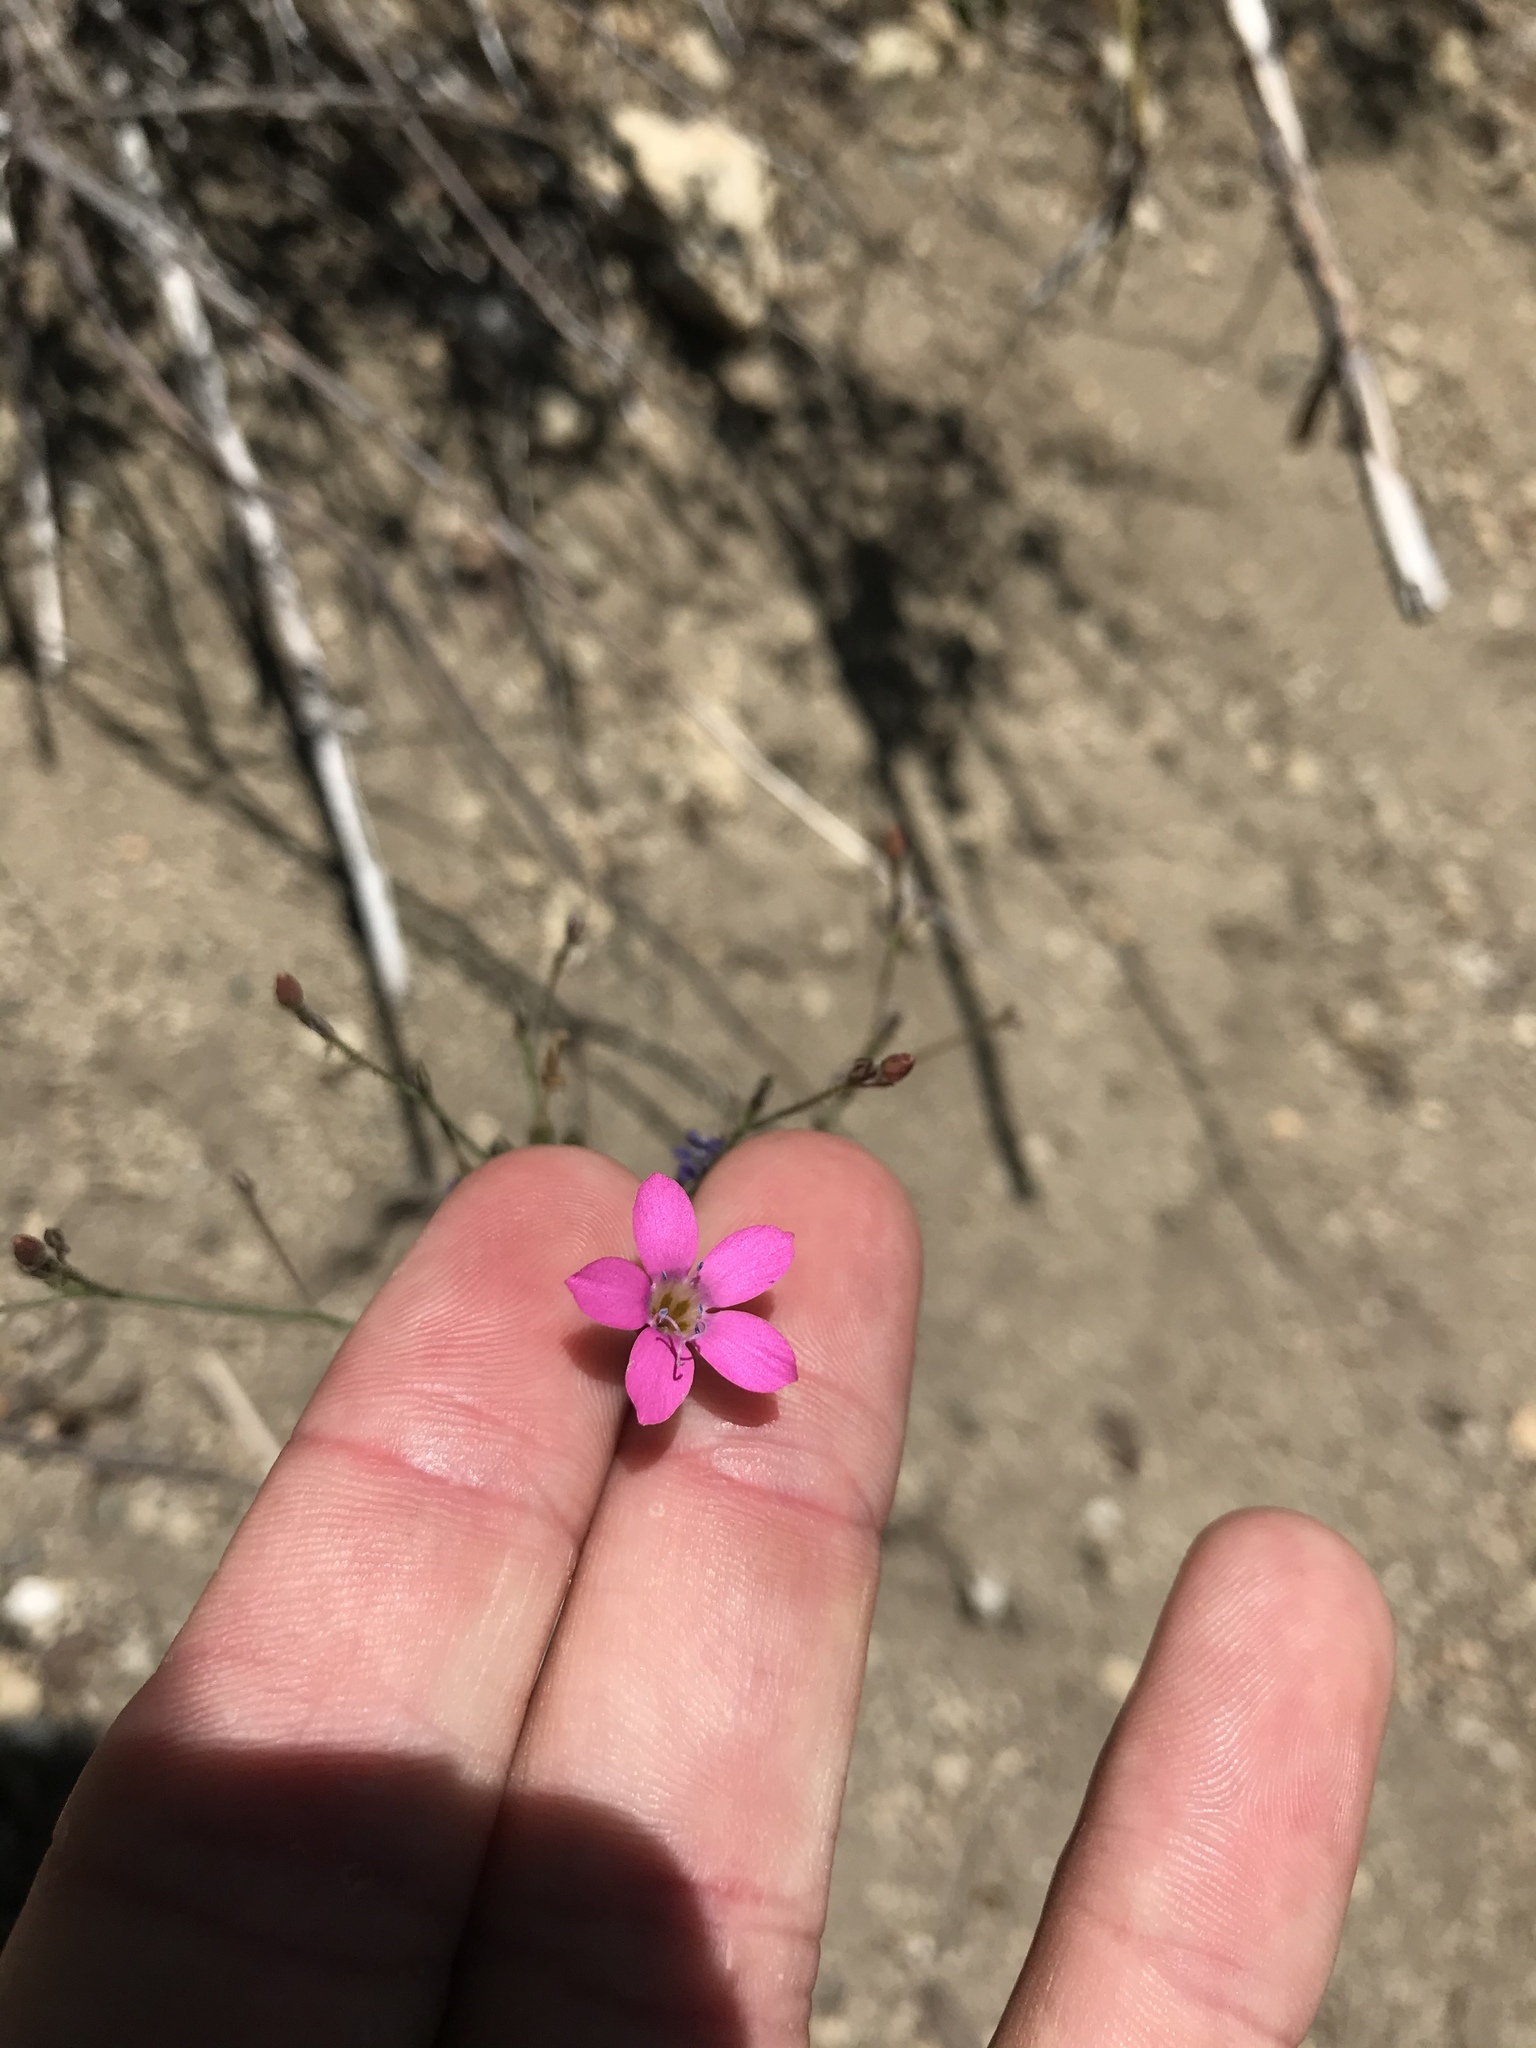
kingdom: Plantae
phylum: Tracheophyta
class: Magnoliopsida
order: Ericales
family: Polemoniaceae
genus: Saltugilia
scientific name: Saltugilia splendens
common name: Grinnell's gilia
